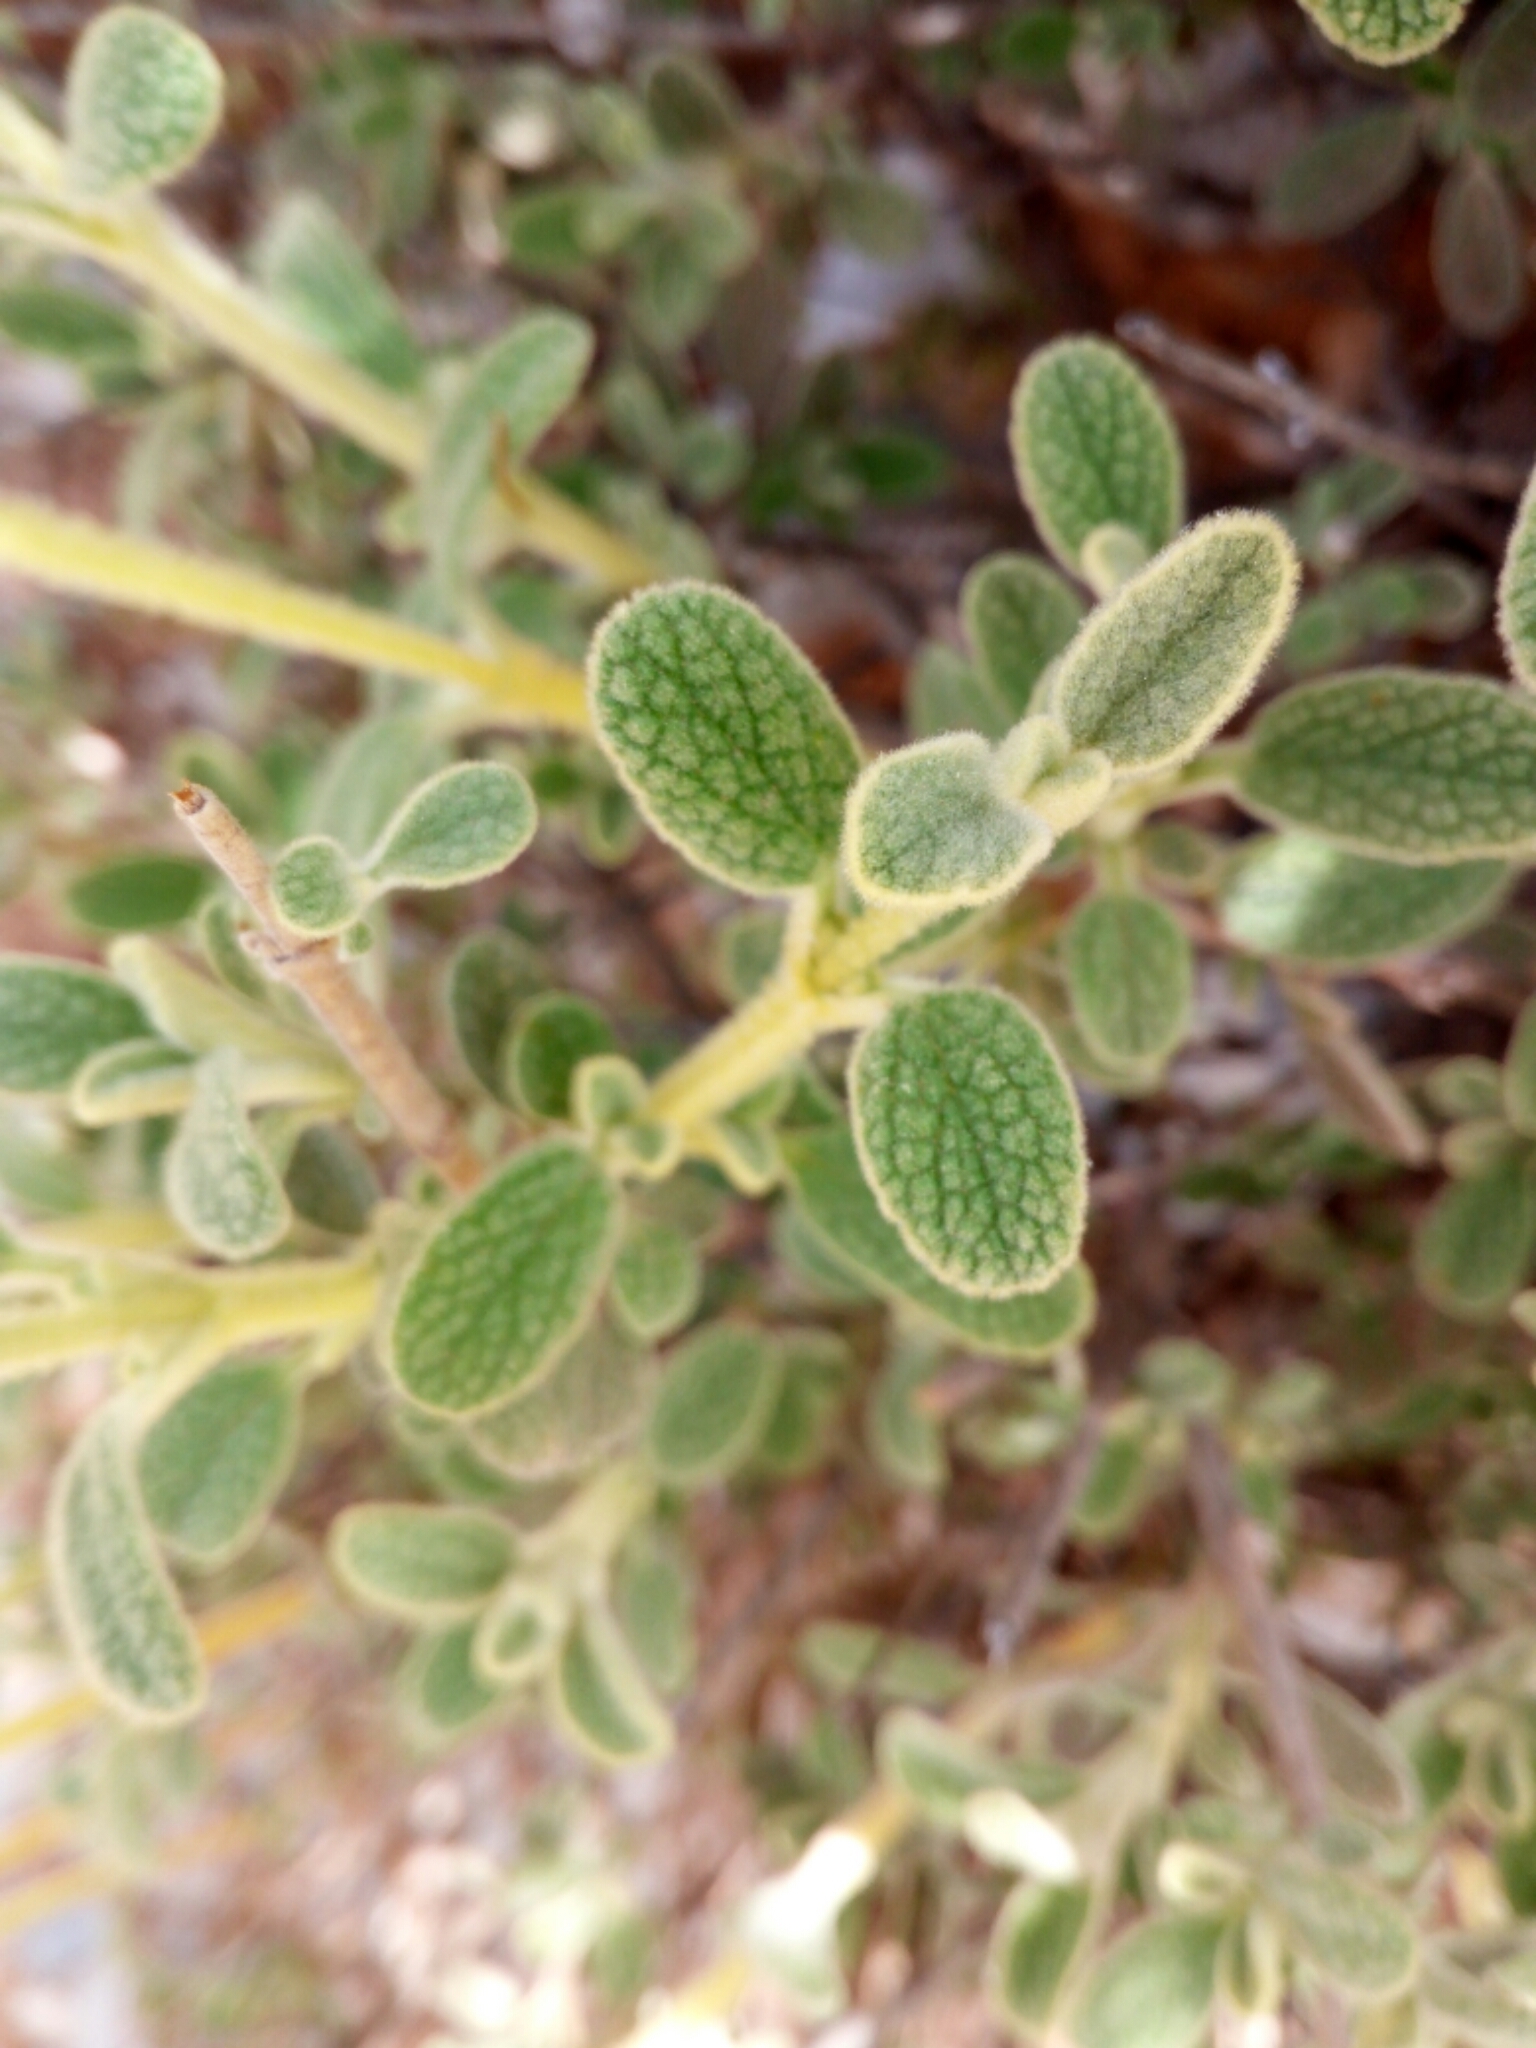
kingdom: Plantae
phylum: Tracheophyta
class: Magnoliopsida
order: Lamiales
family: Lamiaceae
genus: Phlomis
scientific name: Phlomis lanata
